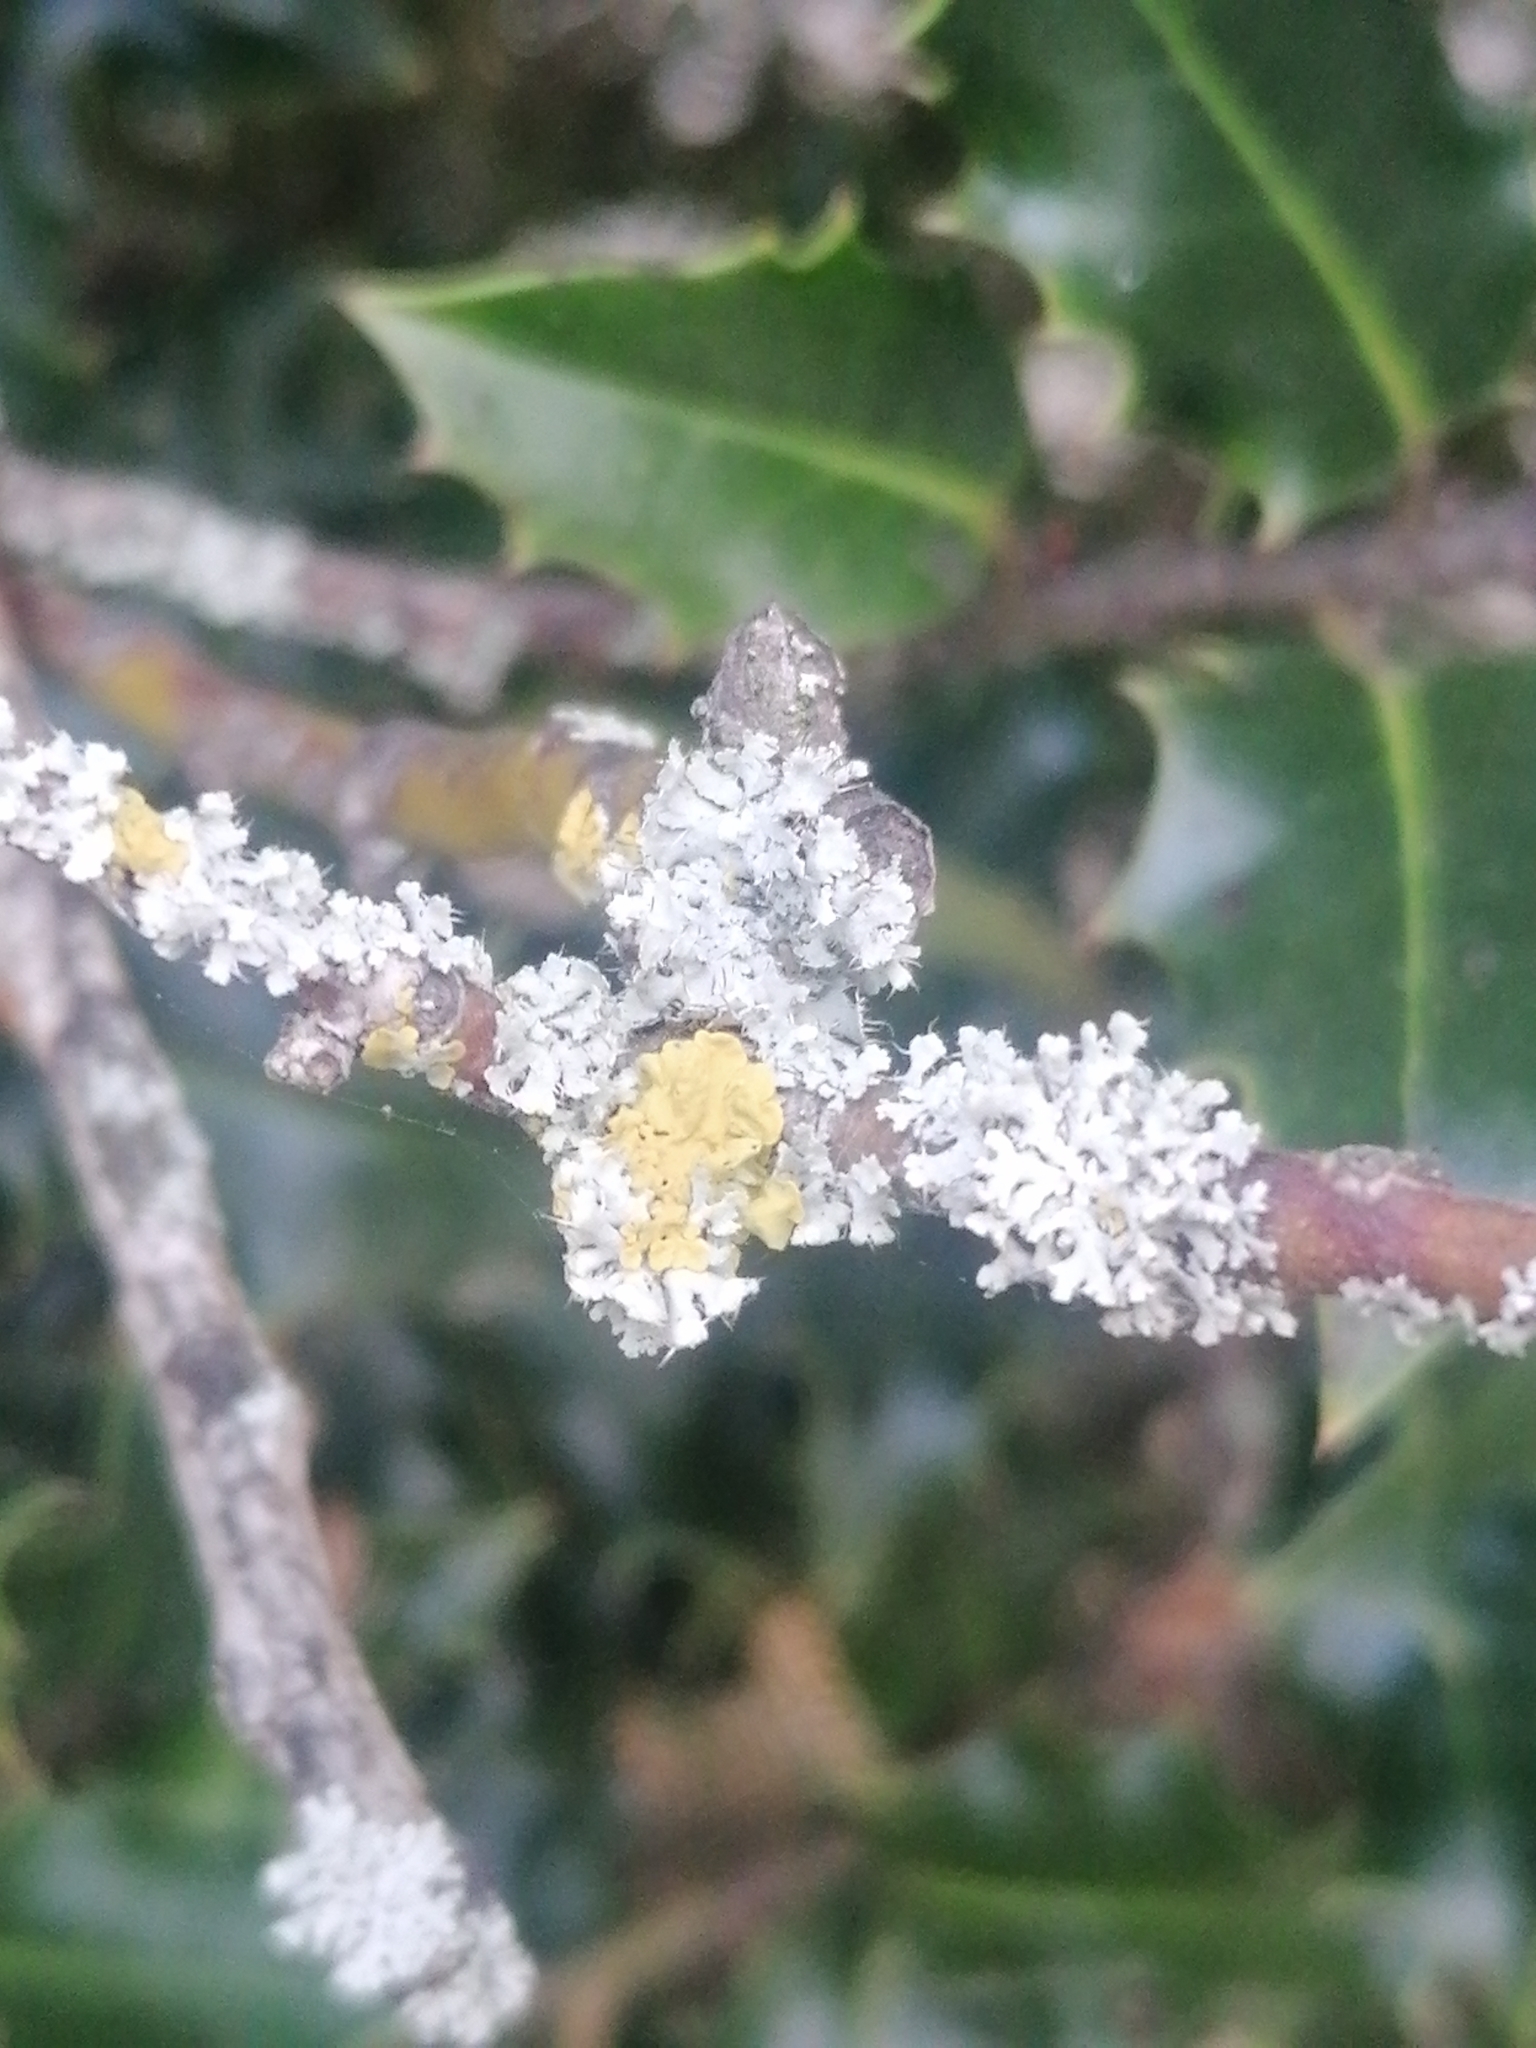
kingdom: Fungi
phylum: Ascomycota
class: Lecanoromycetes
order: Teloschistales
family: Teloschistaceae
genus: Xanthoria
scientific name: Xanthoria parietina
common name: Common orange lichen
